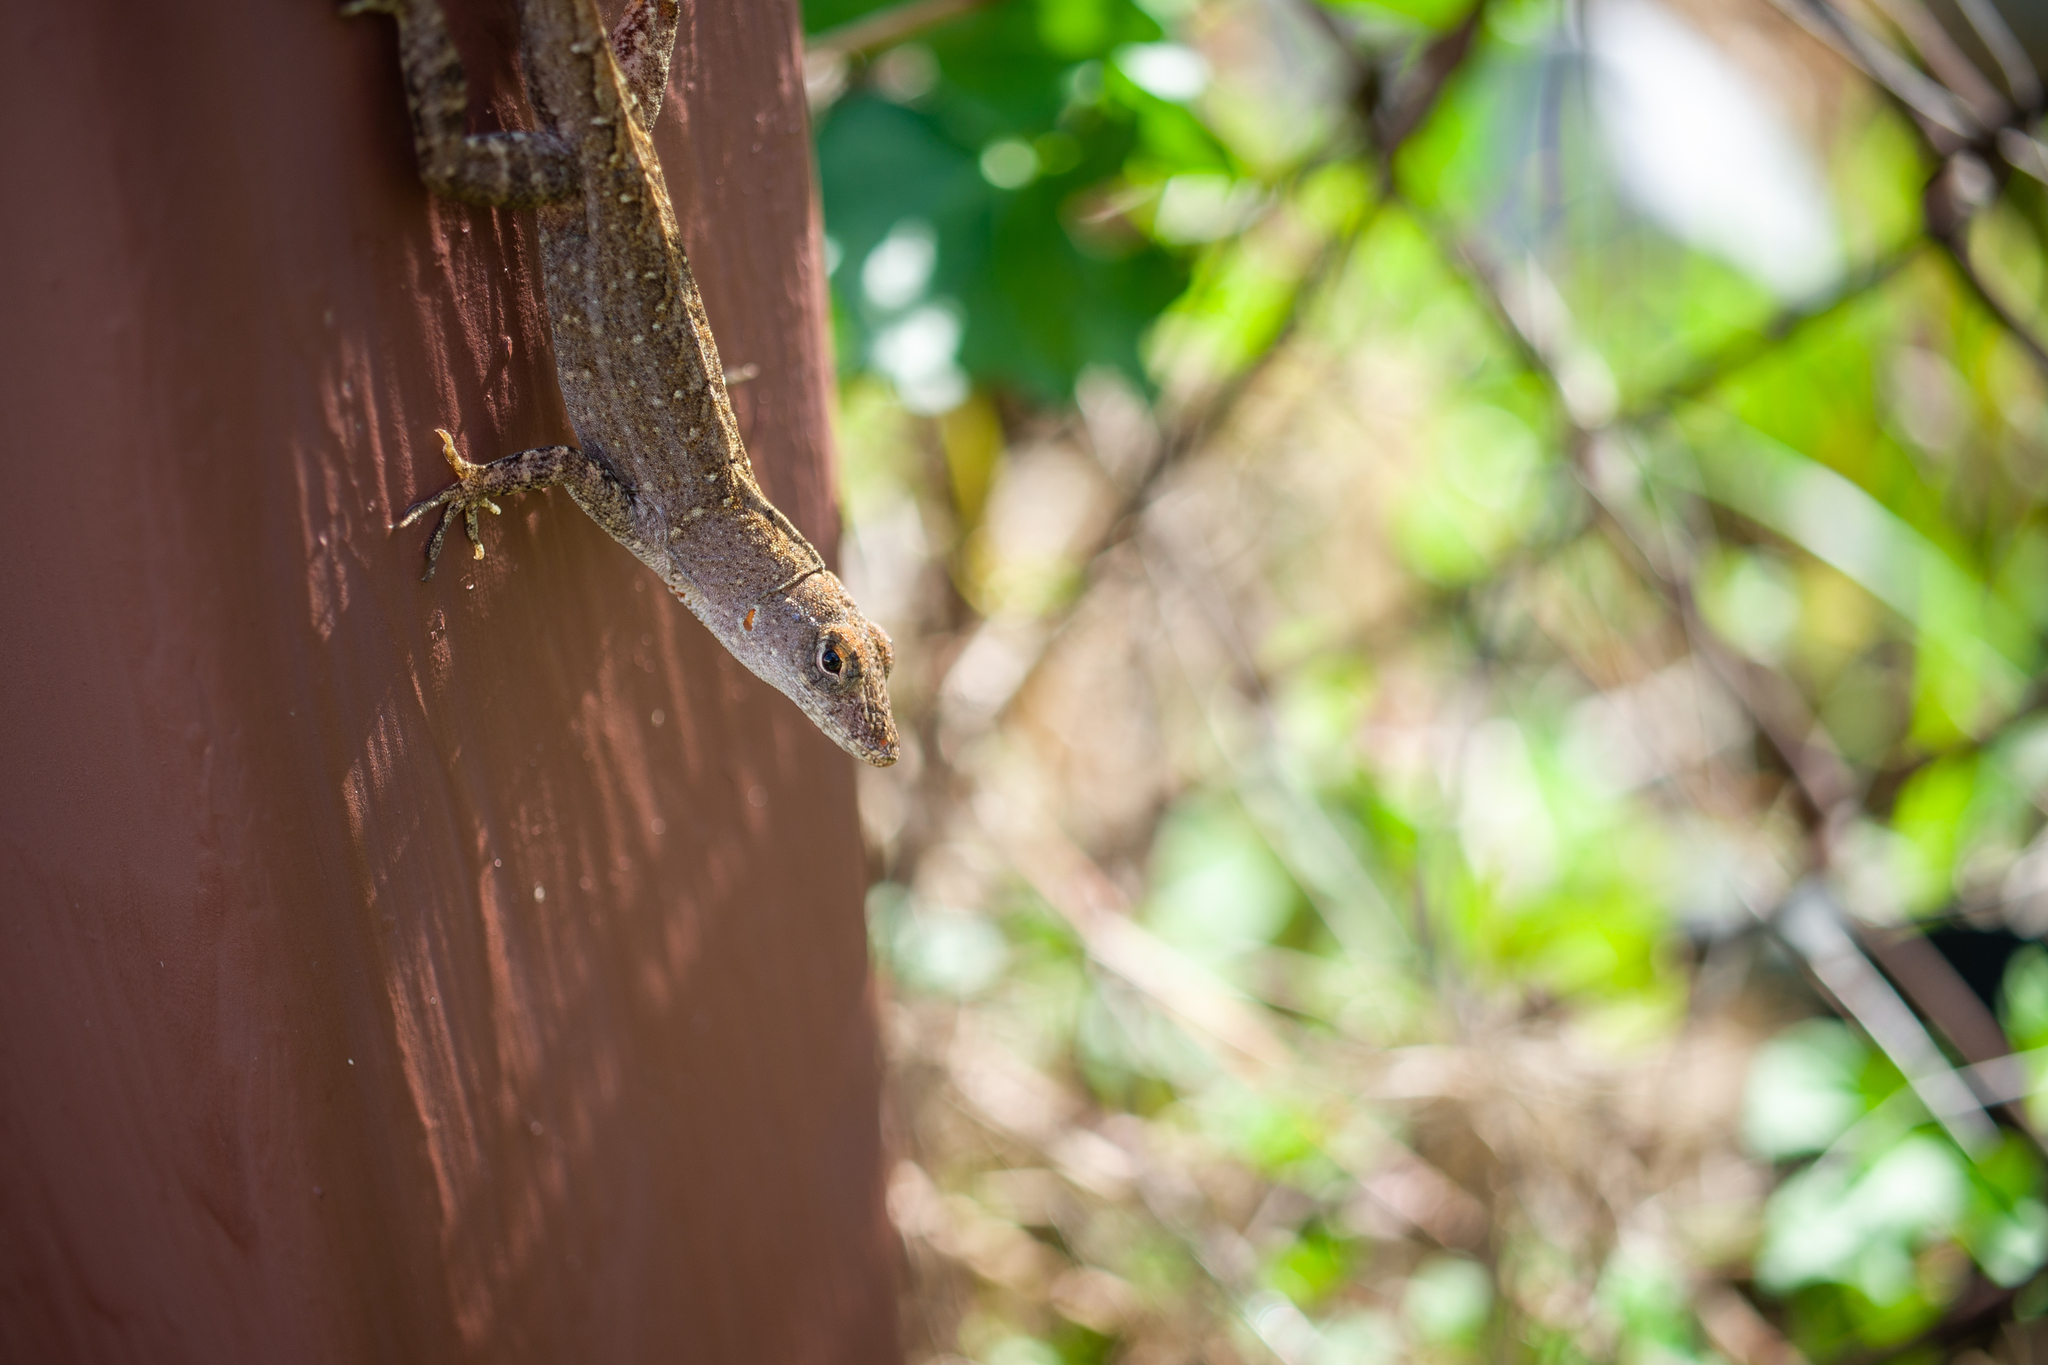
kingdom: Animalia
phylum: Chordata
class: Squamata
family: Dactyloidae
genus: Anolis
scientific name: Anolis sagrei
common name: Brown anole
